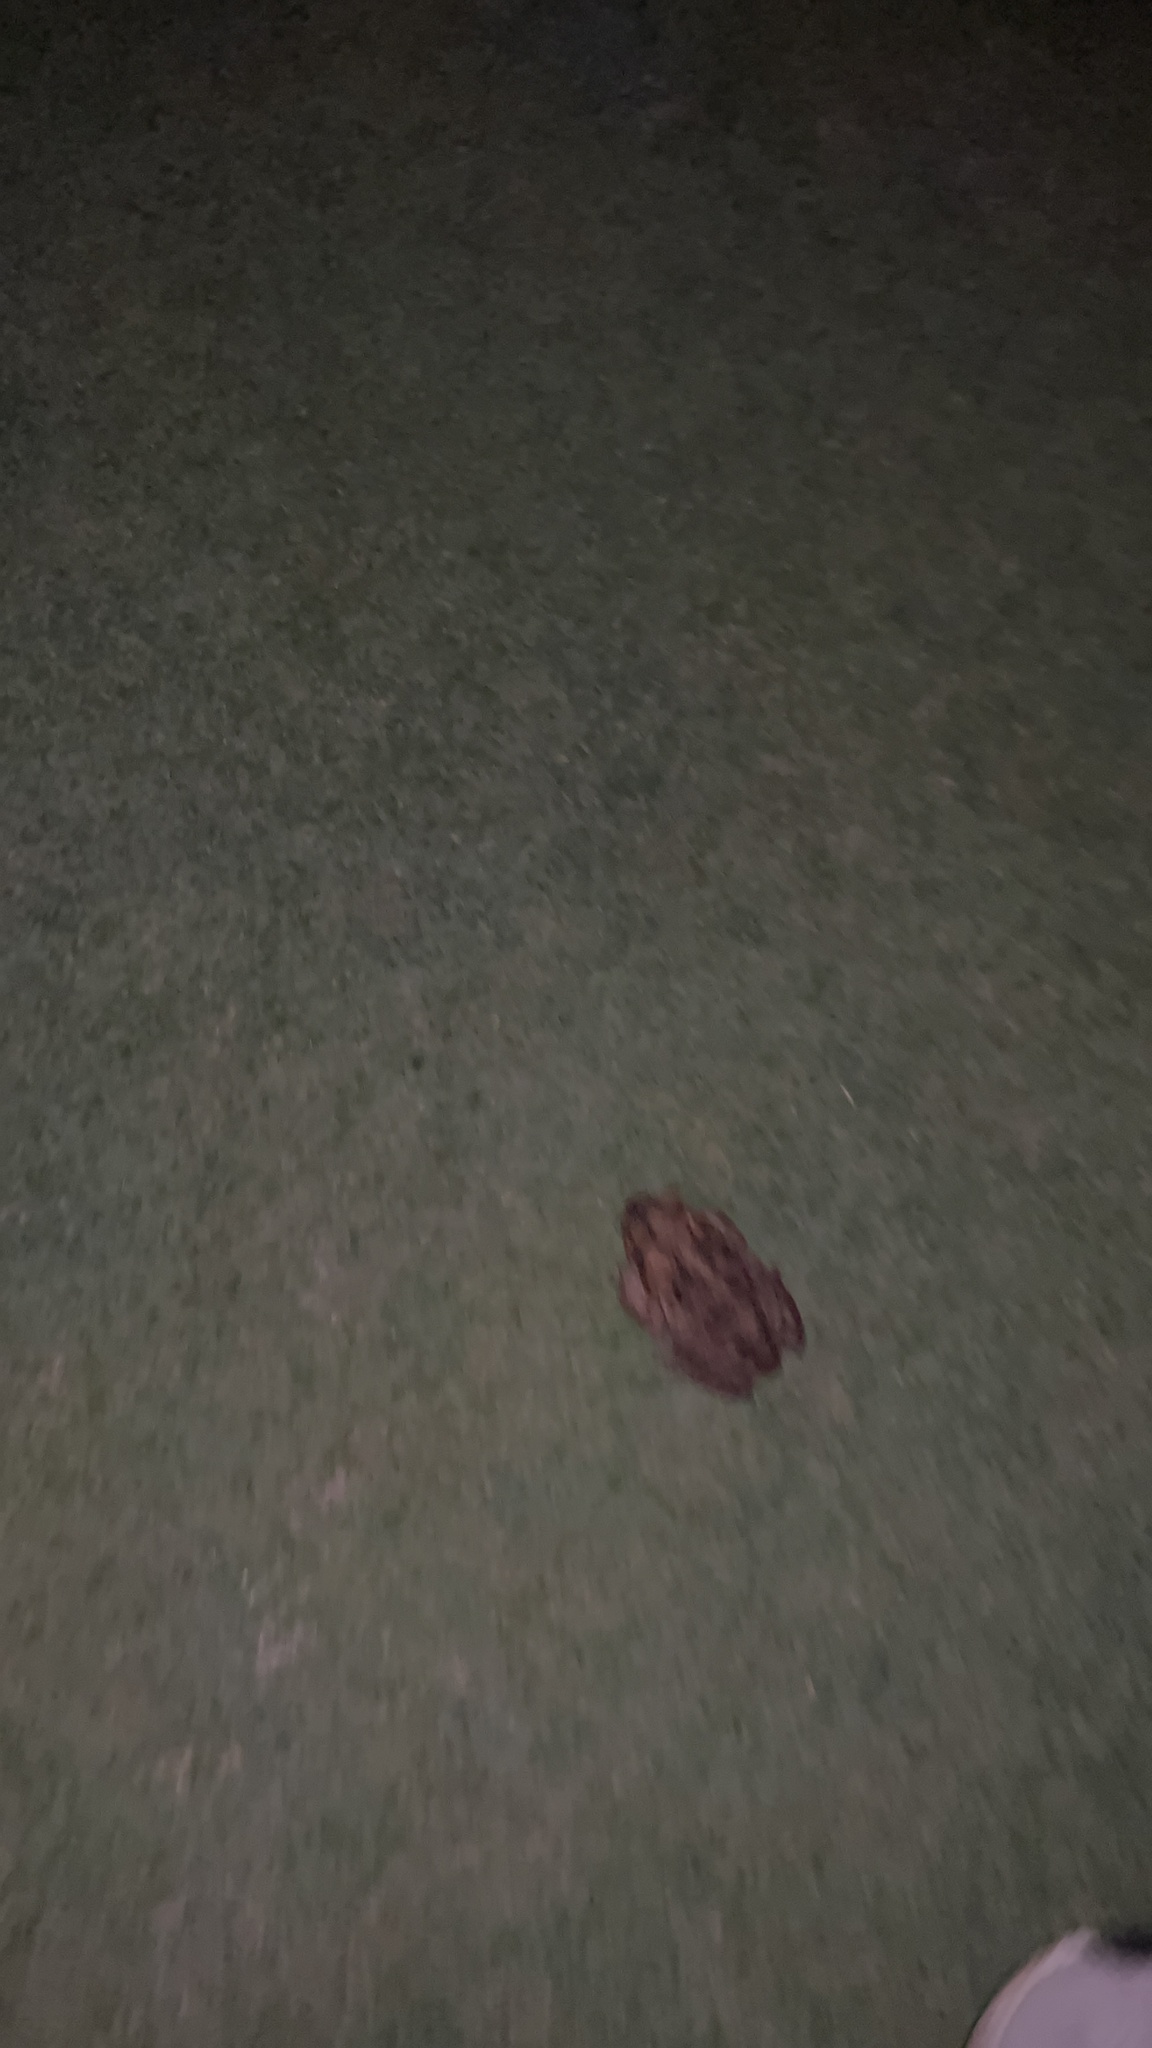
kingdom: Animalia
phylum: Chordata
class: Amphibia
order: Anura
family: Bufonidae
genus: Rhinella
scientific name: Rhinella marina
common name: Cane toad
